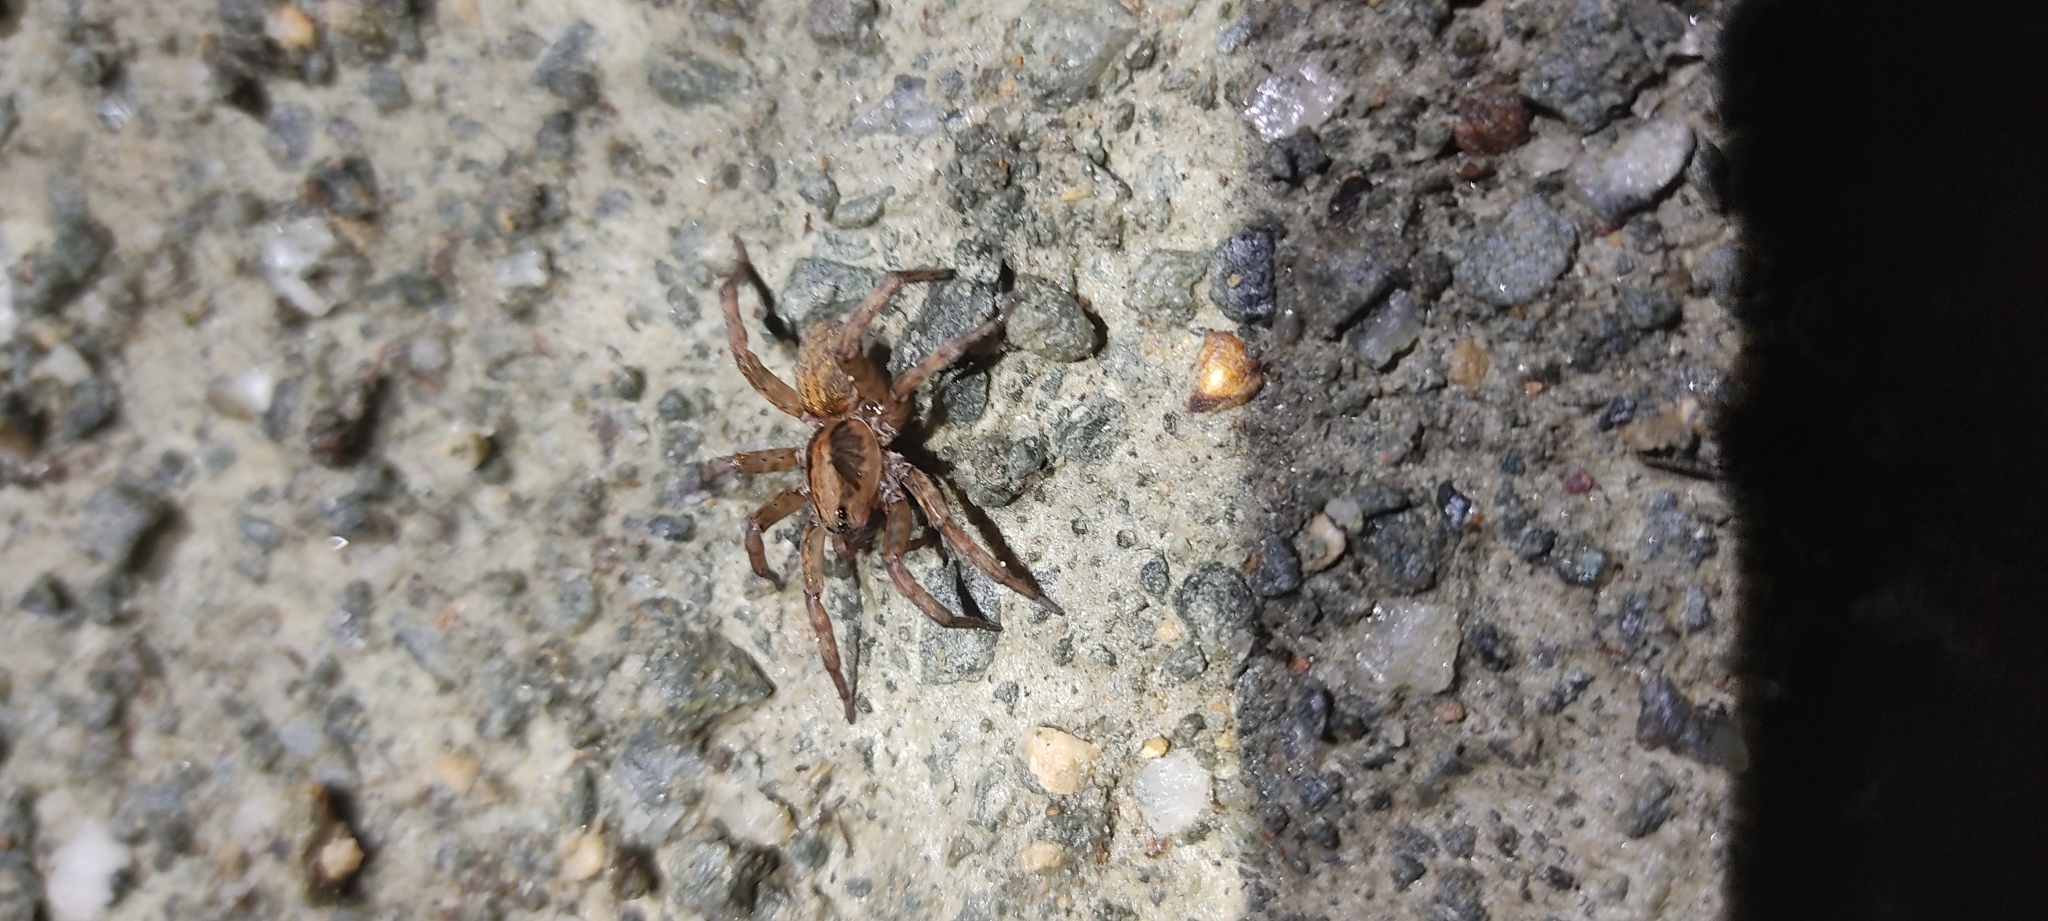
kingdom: Animalia
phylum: Arthropoda
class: Arachnida
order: Araneae
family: Lycosidae
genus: Trochosa
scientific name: Trochosa
